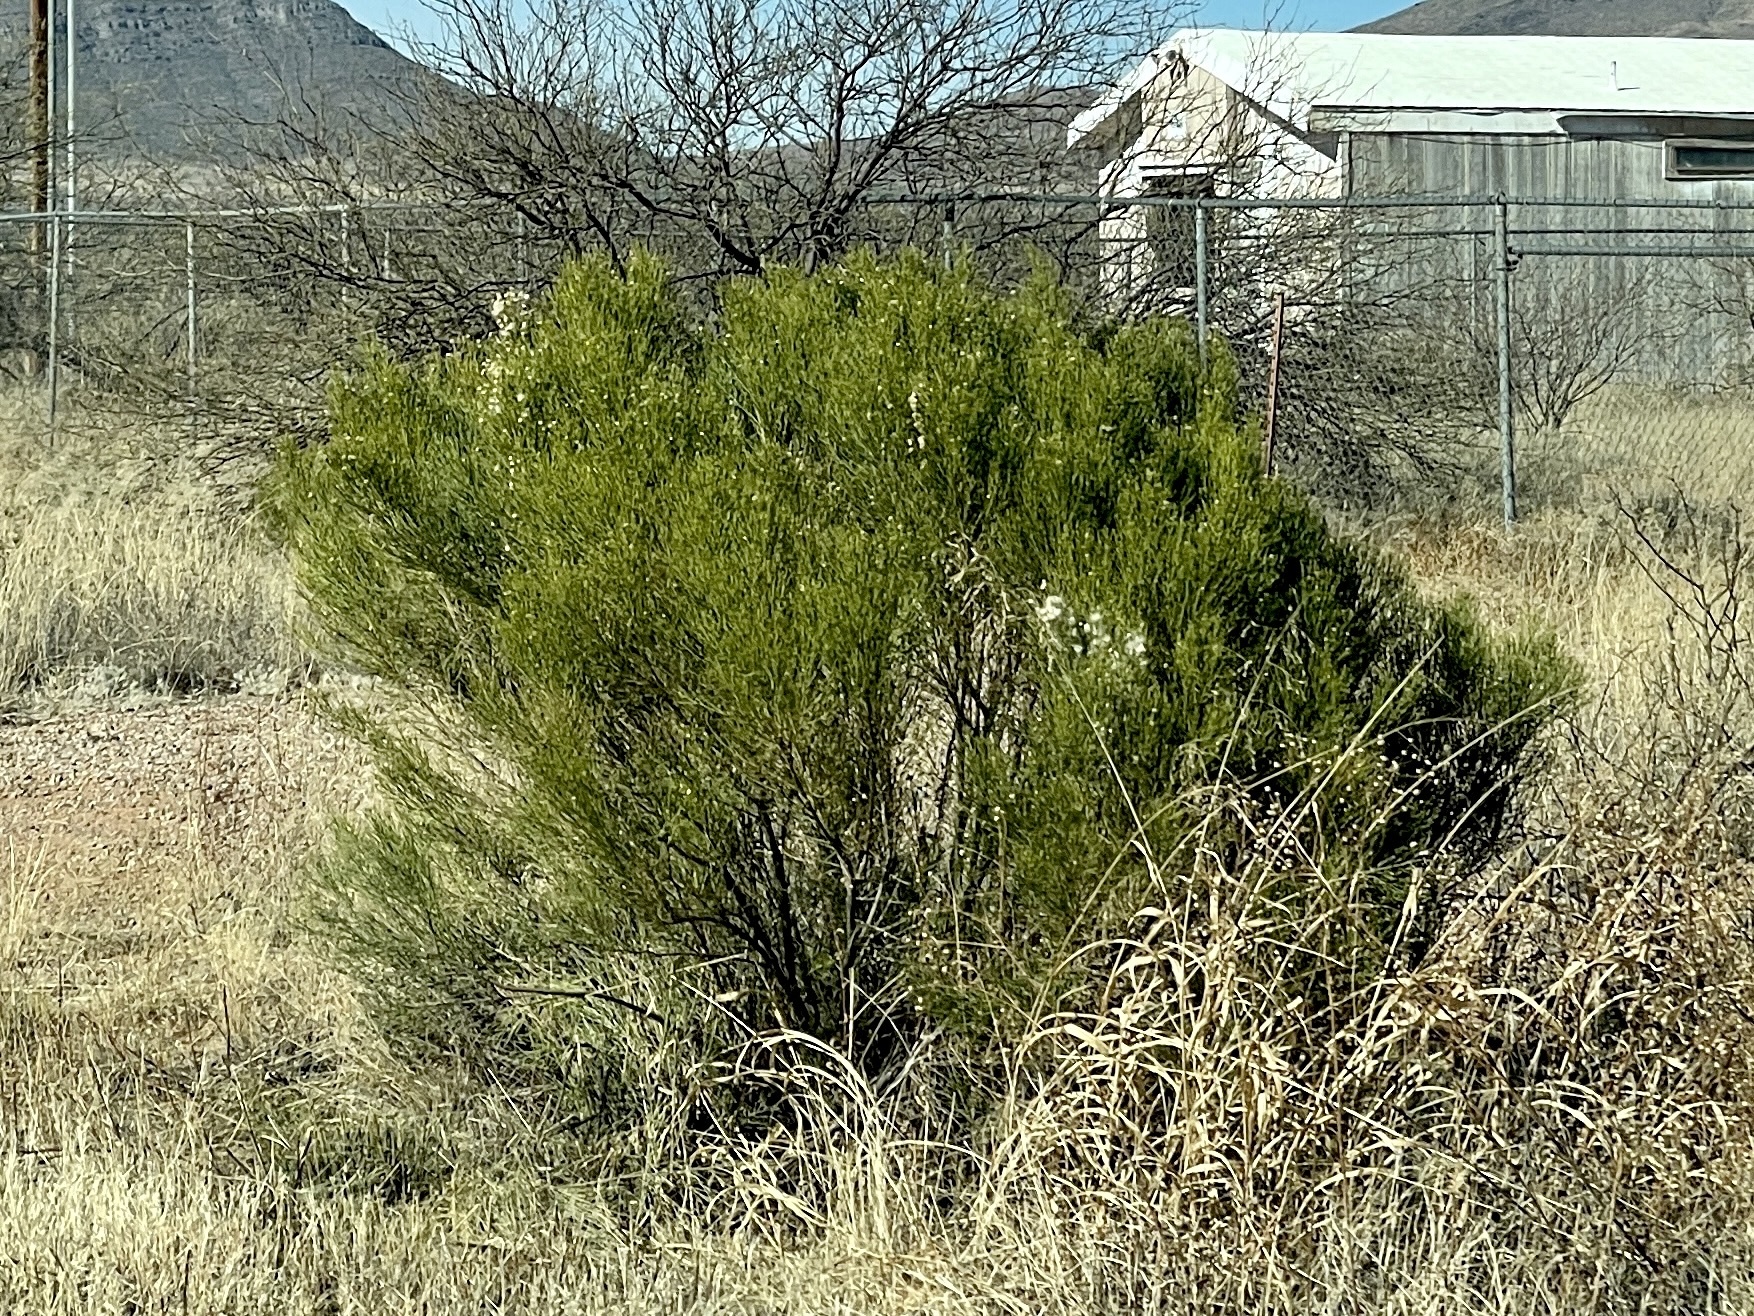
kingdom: Plantae
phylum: Tracheophyta
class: Magnoliopsida
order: Asterales
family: Asteraceae
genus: Baccharis
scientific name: Baccharis sarothroides
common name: Desert-broom
